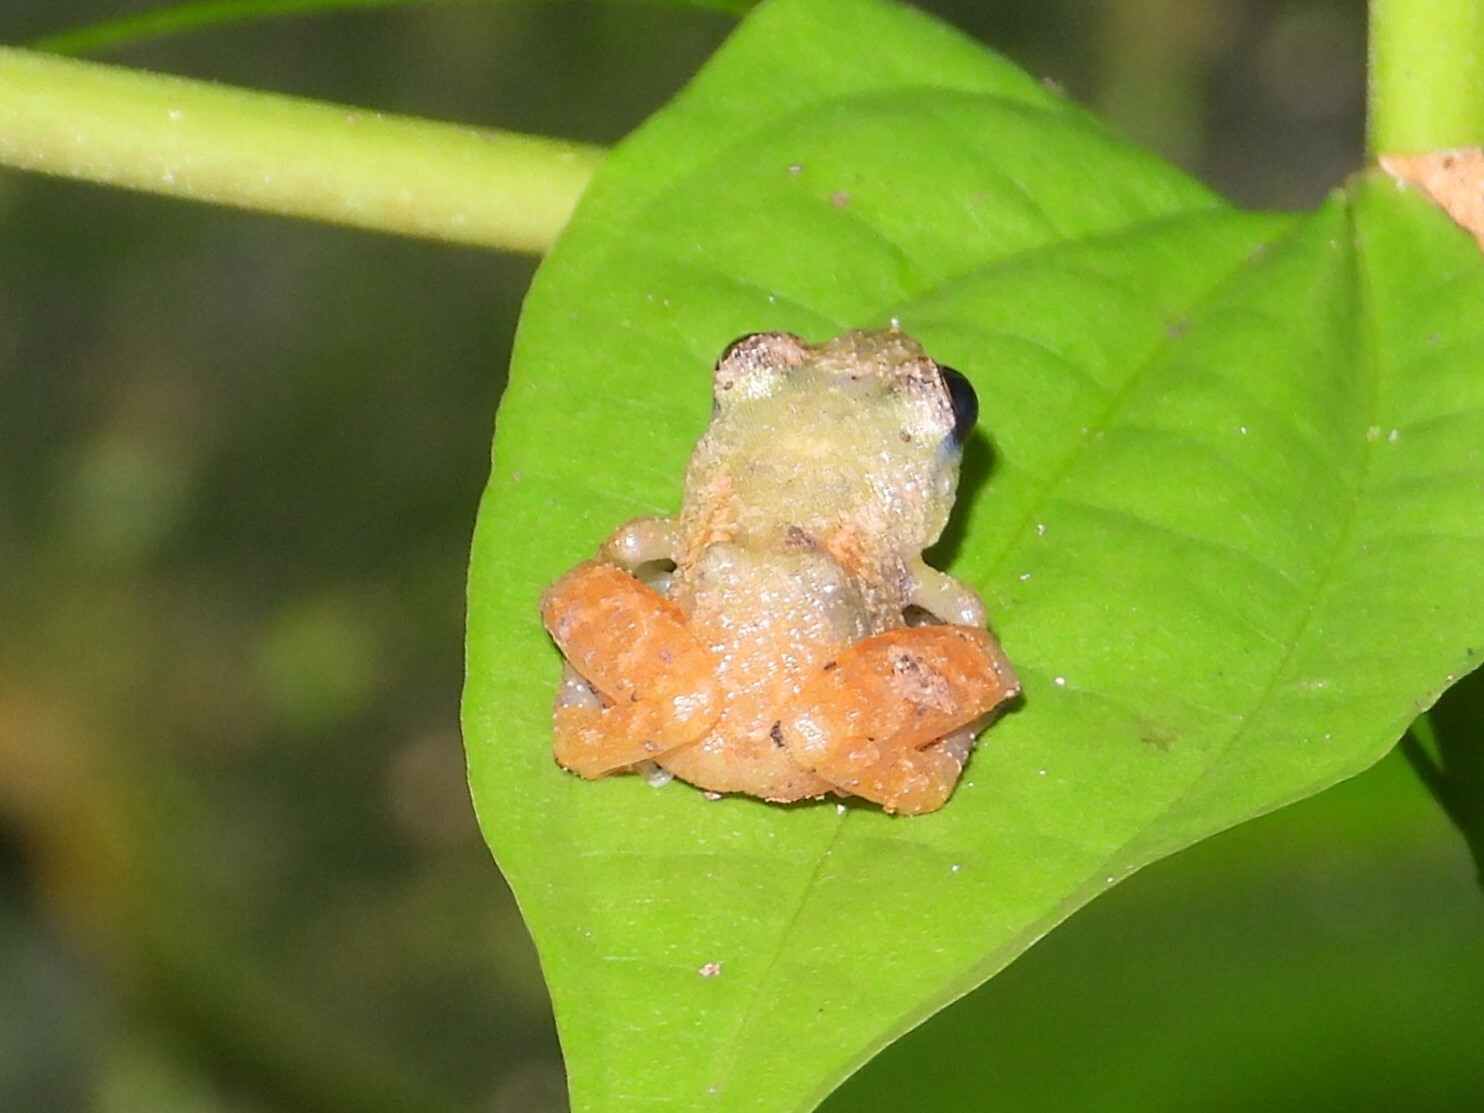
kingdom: Animalia
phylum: Chordata
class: Amphibia
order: Anura
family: Eleutherodactylidae
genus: Diasporus
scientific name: Diasporus diastema
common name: Caretta robber frog
